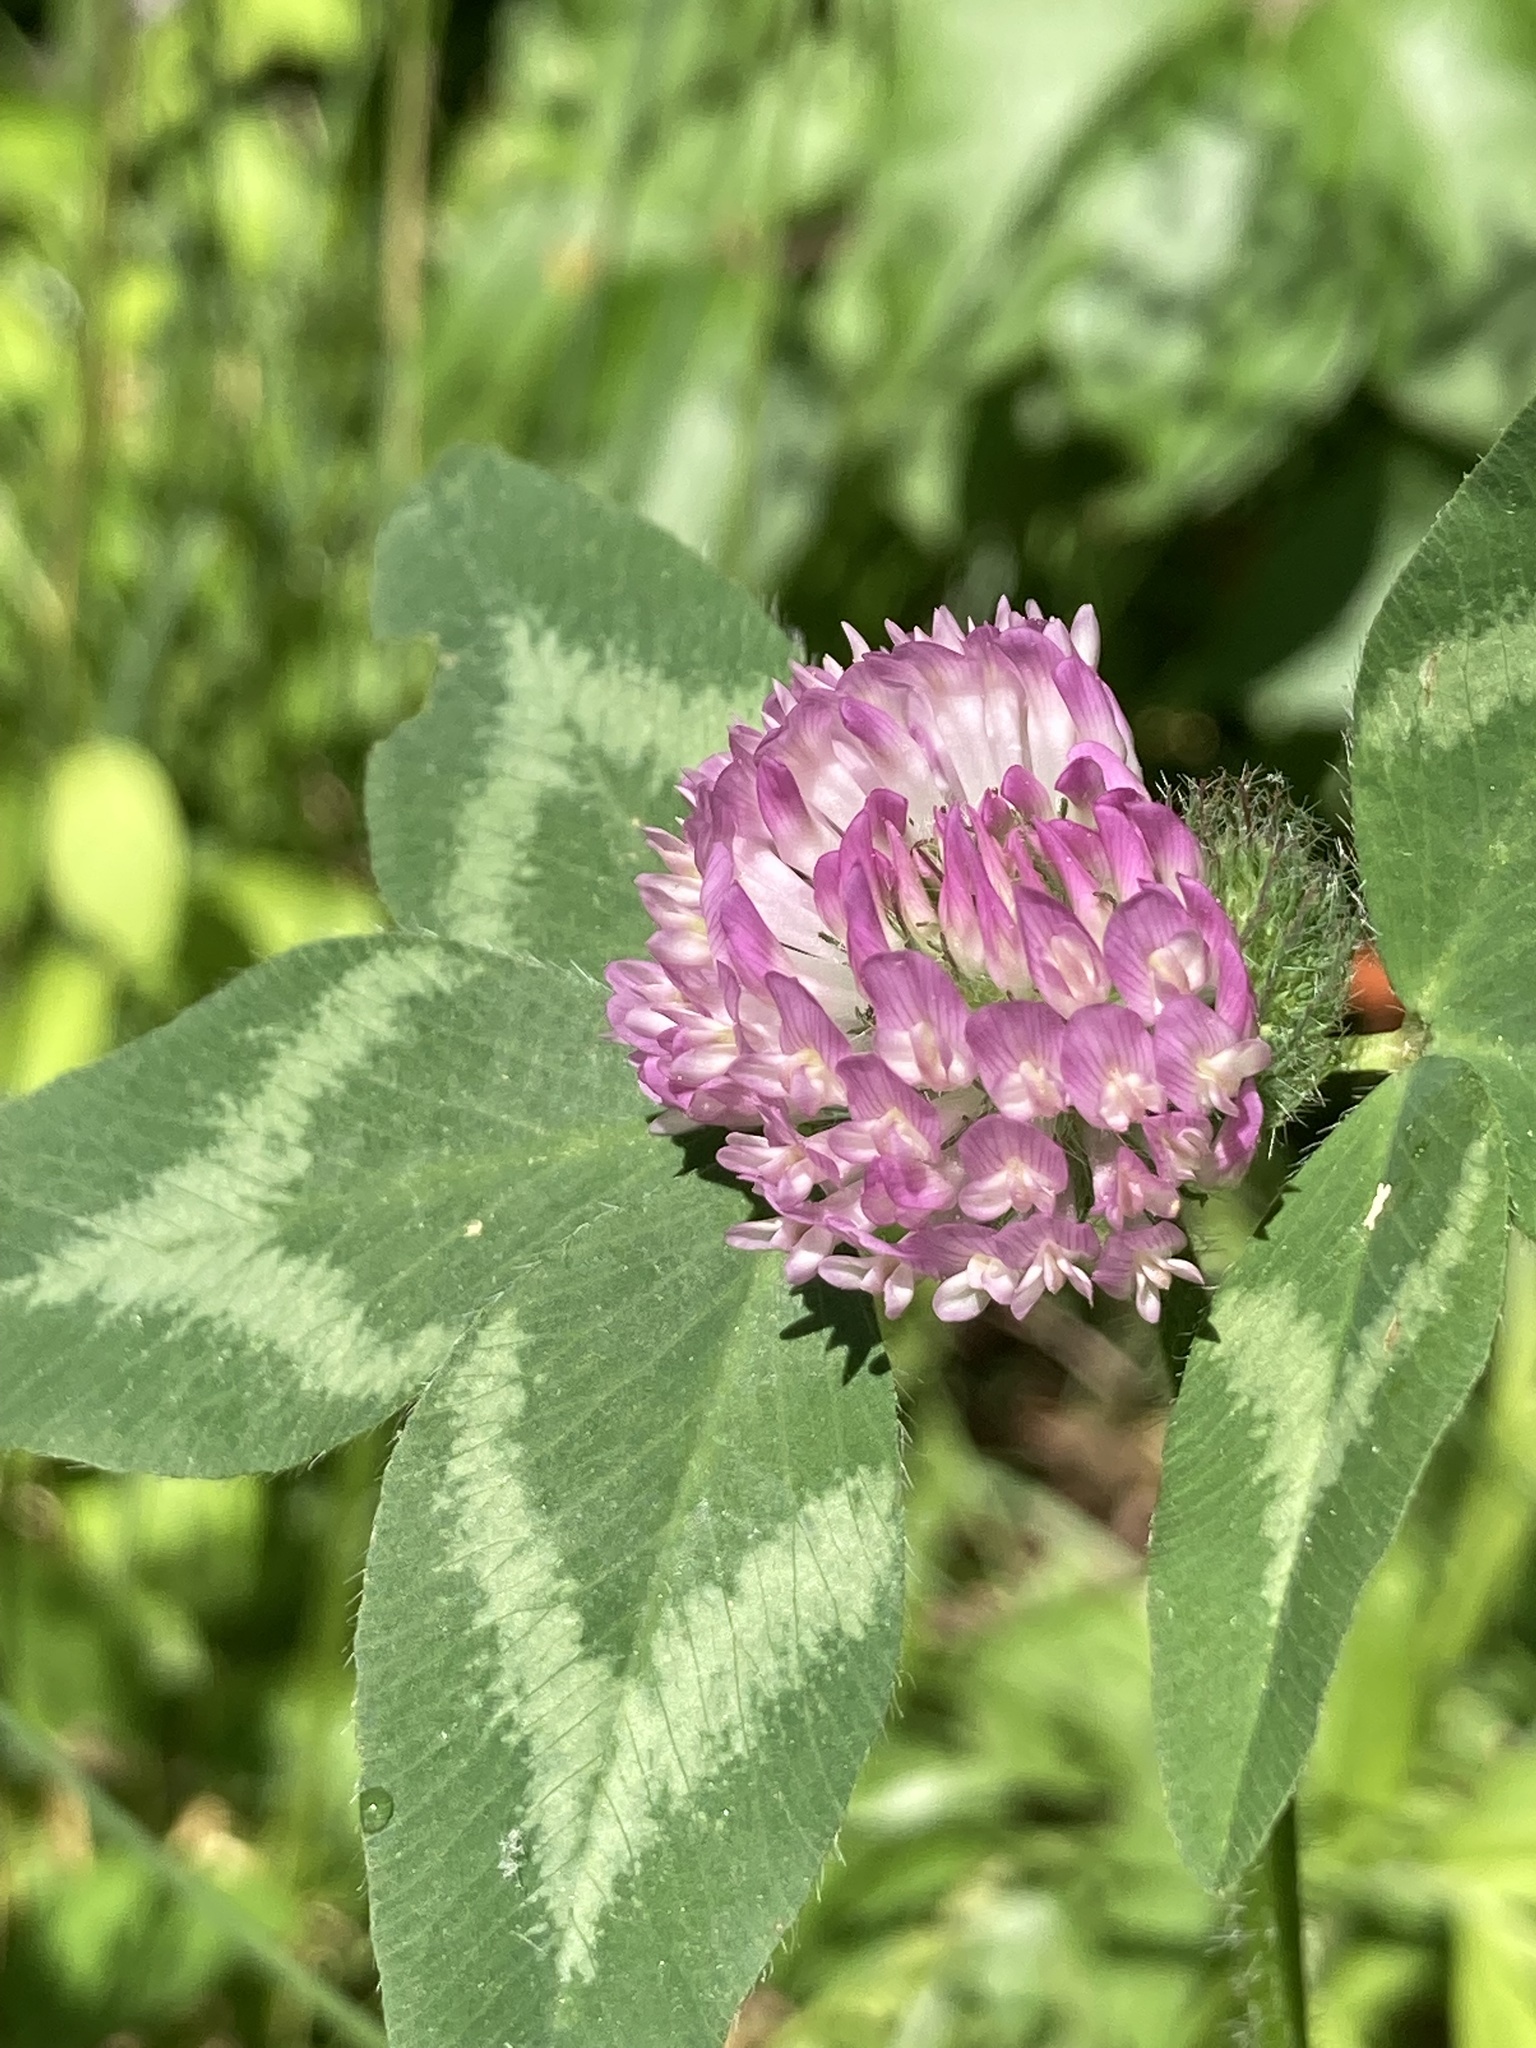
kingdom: Plantae
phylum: Tracheophyta
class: Magnoliopsida
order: Fabales
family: Fabaceae
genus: Trifolium
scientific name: Trifolium pratense
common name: Red clover
